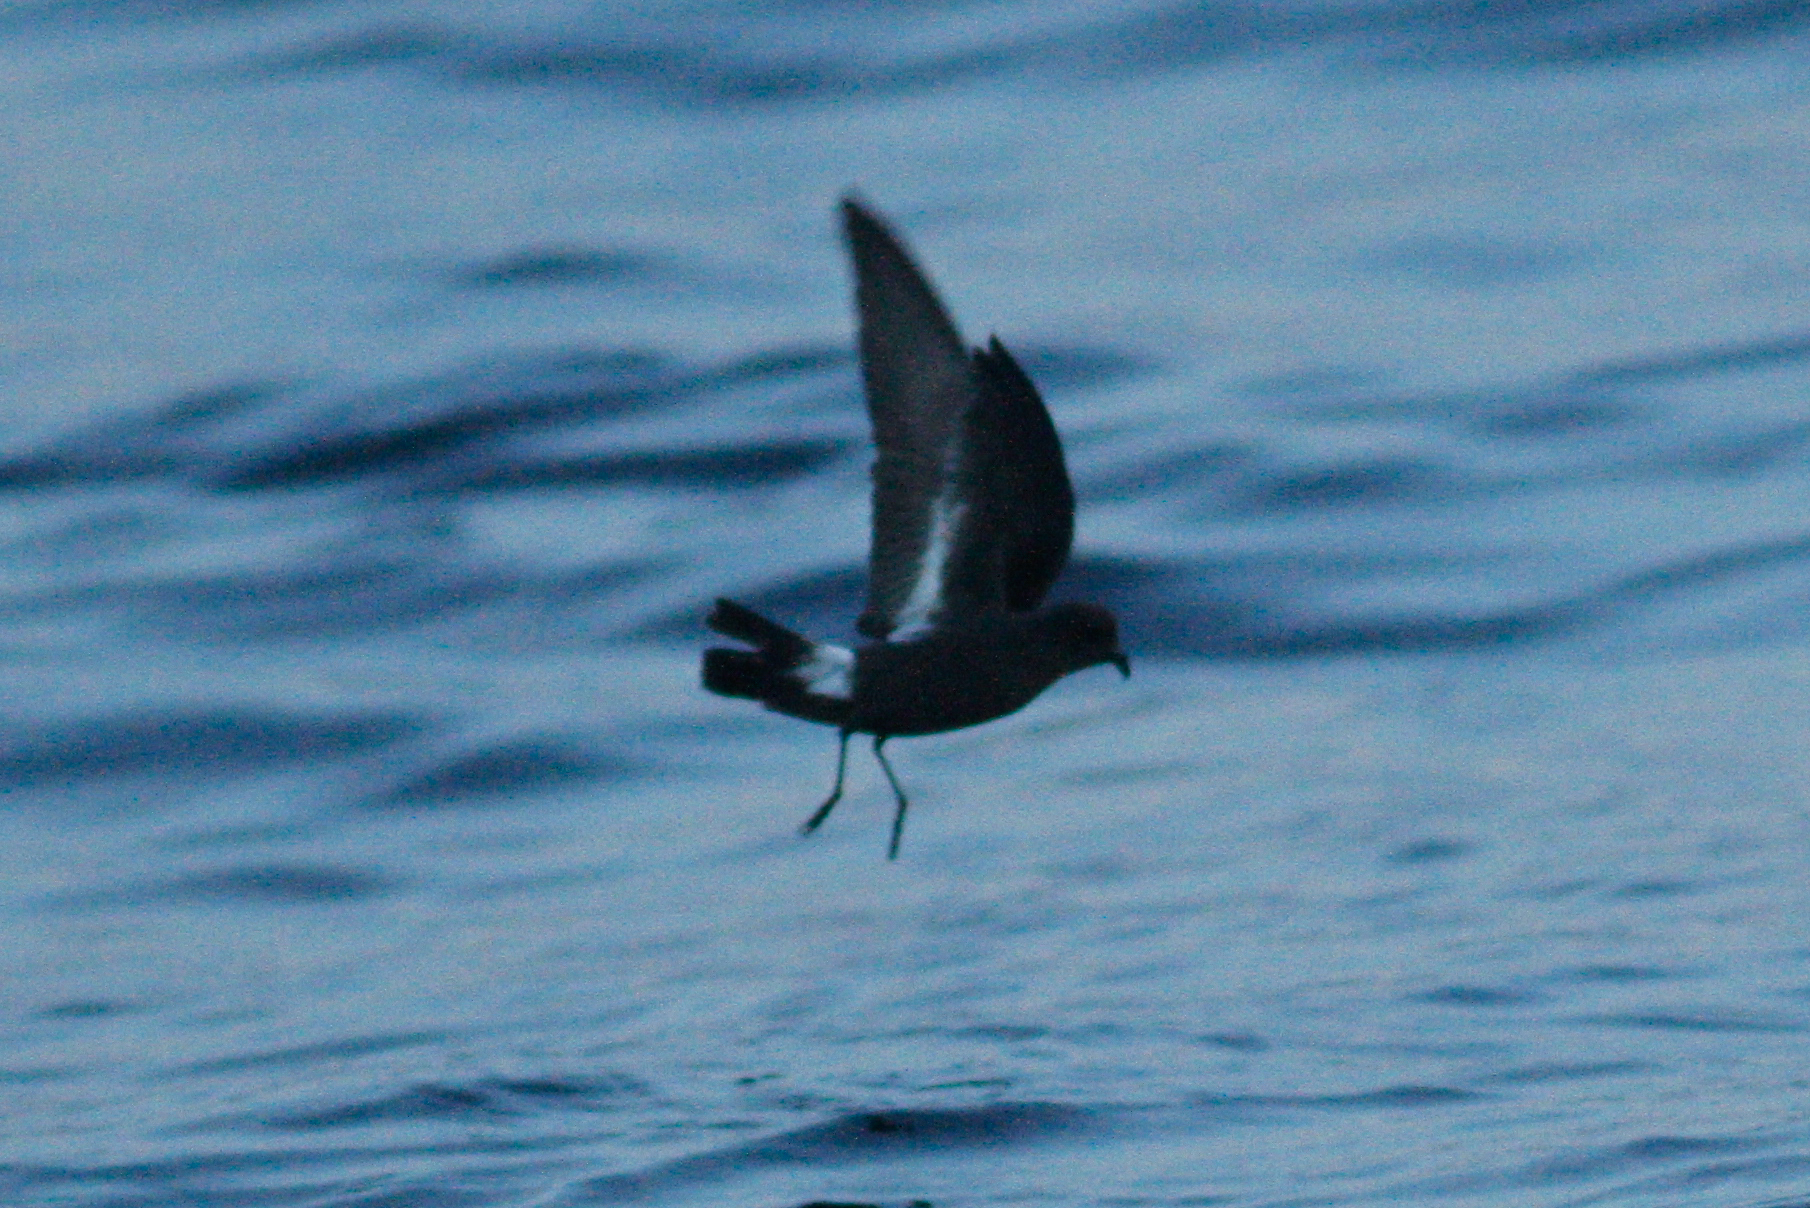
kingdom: Animalia
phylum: Chordata
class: Aves
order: Procellariiformes
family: Hydrobatidae
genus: Hydrobates
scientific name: Hydrobates pelagicus
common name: European storm-petrel
